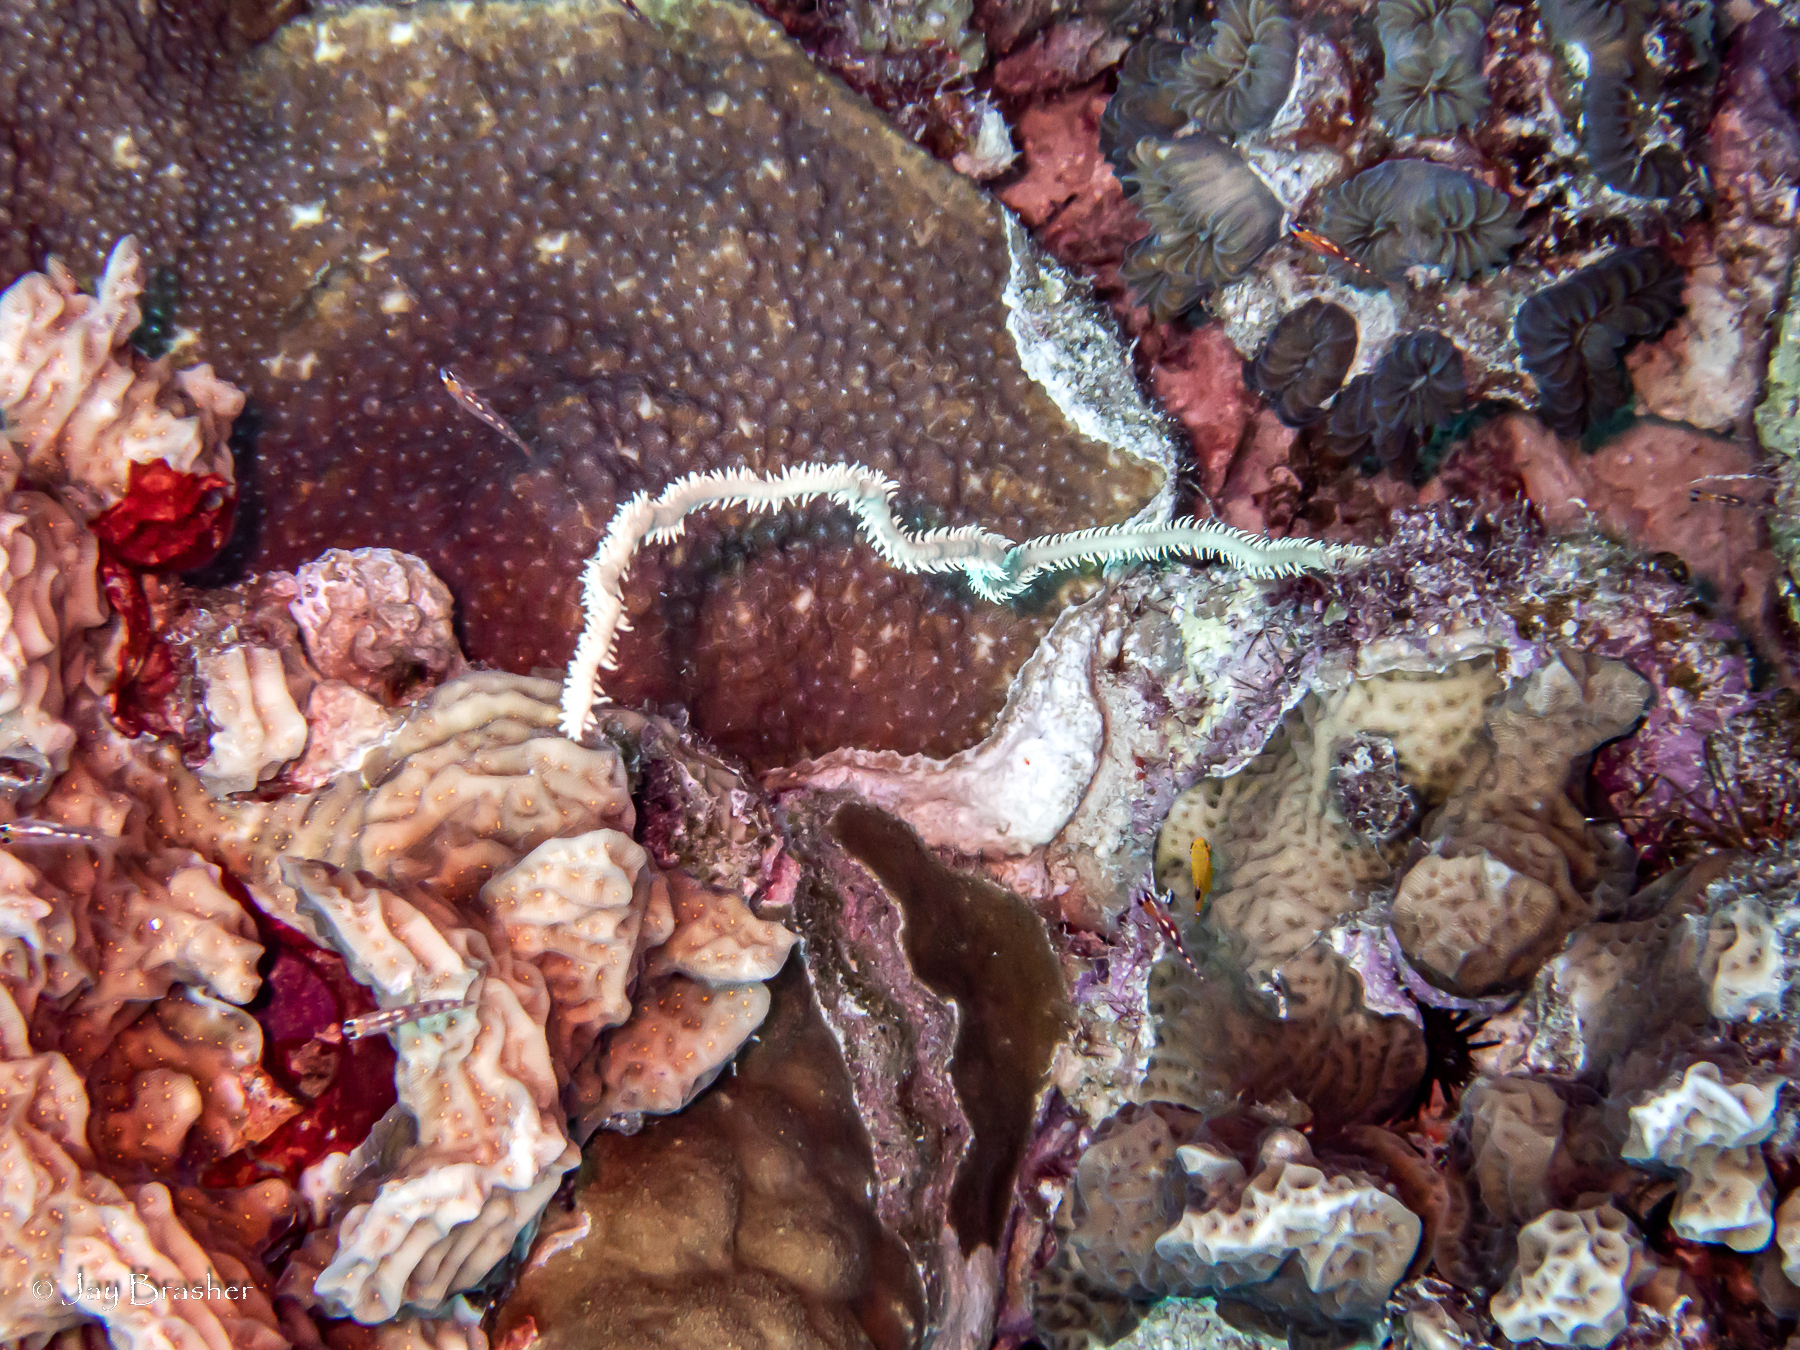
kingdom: Animalia
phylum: Cnidaria
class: Anthozoa
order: Scleractinia
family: Agariciidae
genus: Agaricia
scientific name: Agaricia agaricites
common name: Lettuce coral
